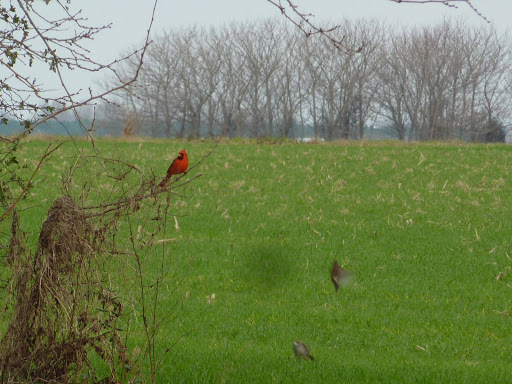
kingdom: Animalia
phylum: Chordata
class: Aves
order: Passeriformes
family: Cardinalidae
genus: Cardinalis
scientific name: Cardinalis cardinalis
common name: Northern cardinal
